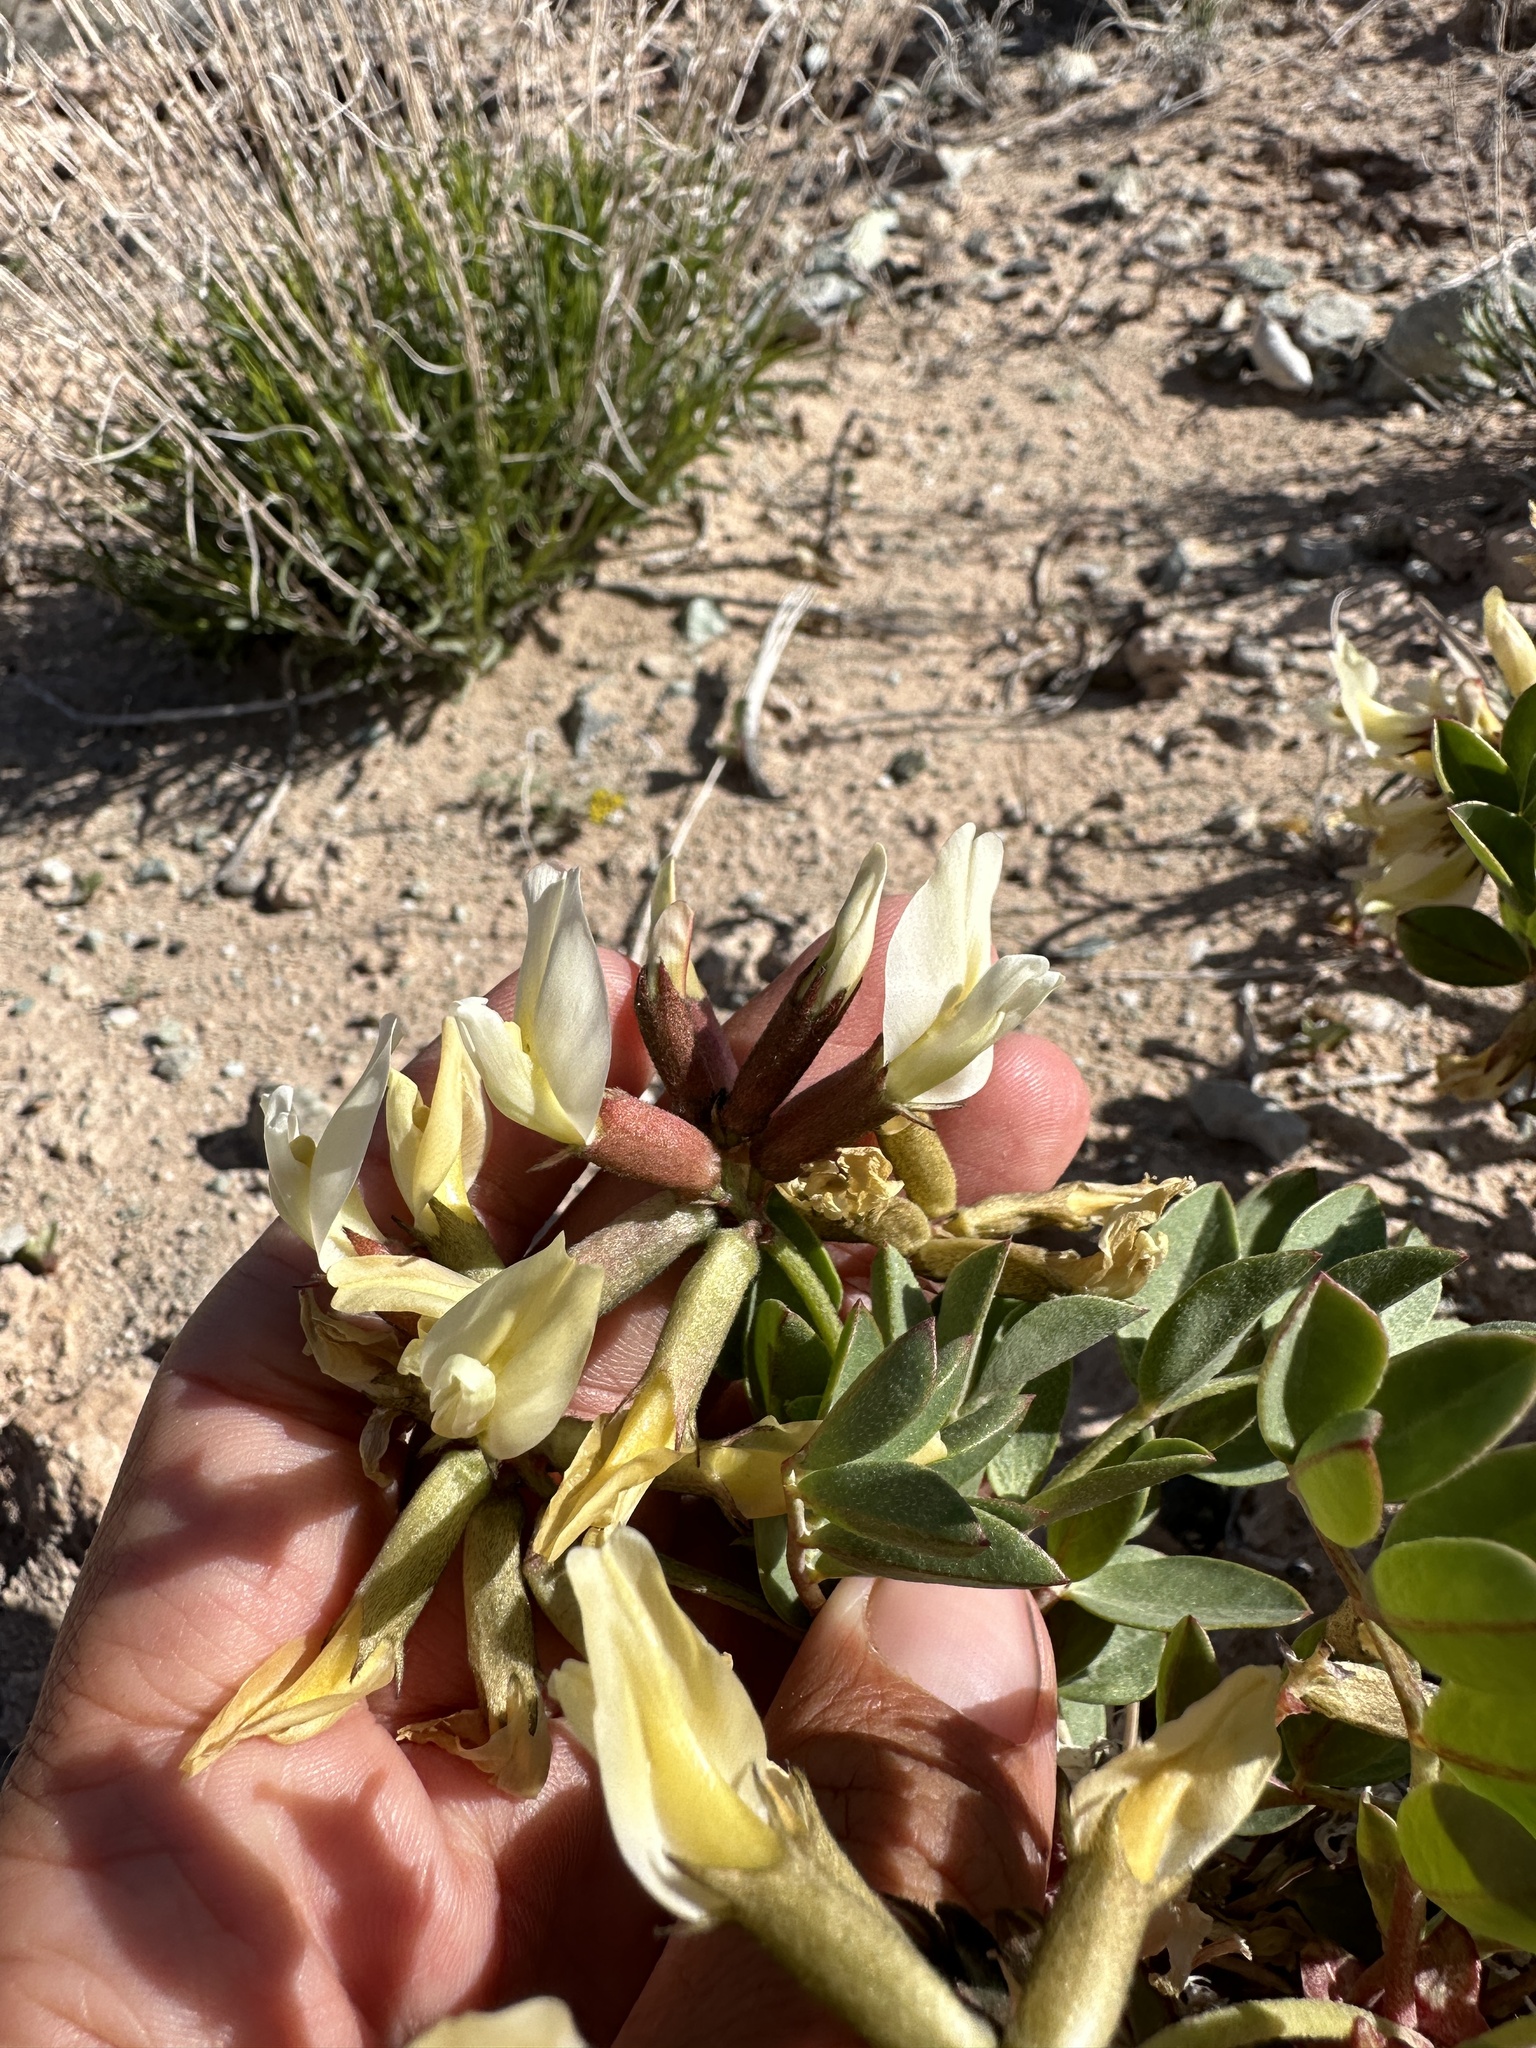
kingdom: Plantae
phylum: Tracheophyta
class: Magnoliopsida
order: Fabales
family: Fabaceae
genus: Astragalus
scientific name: Astragalus sabulosus
